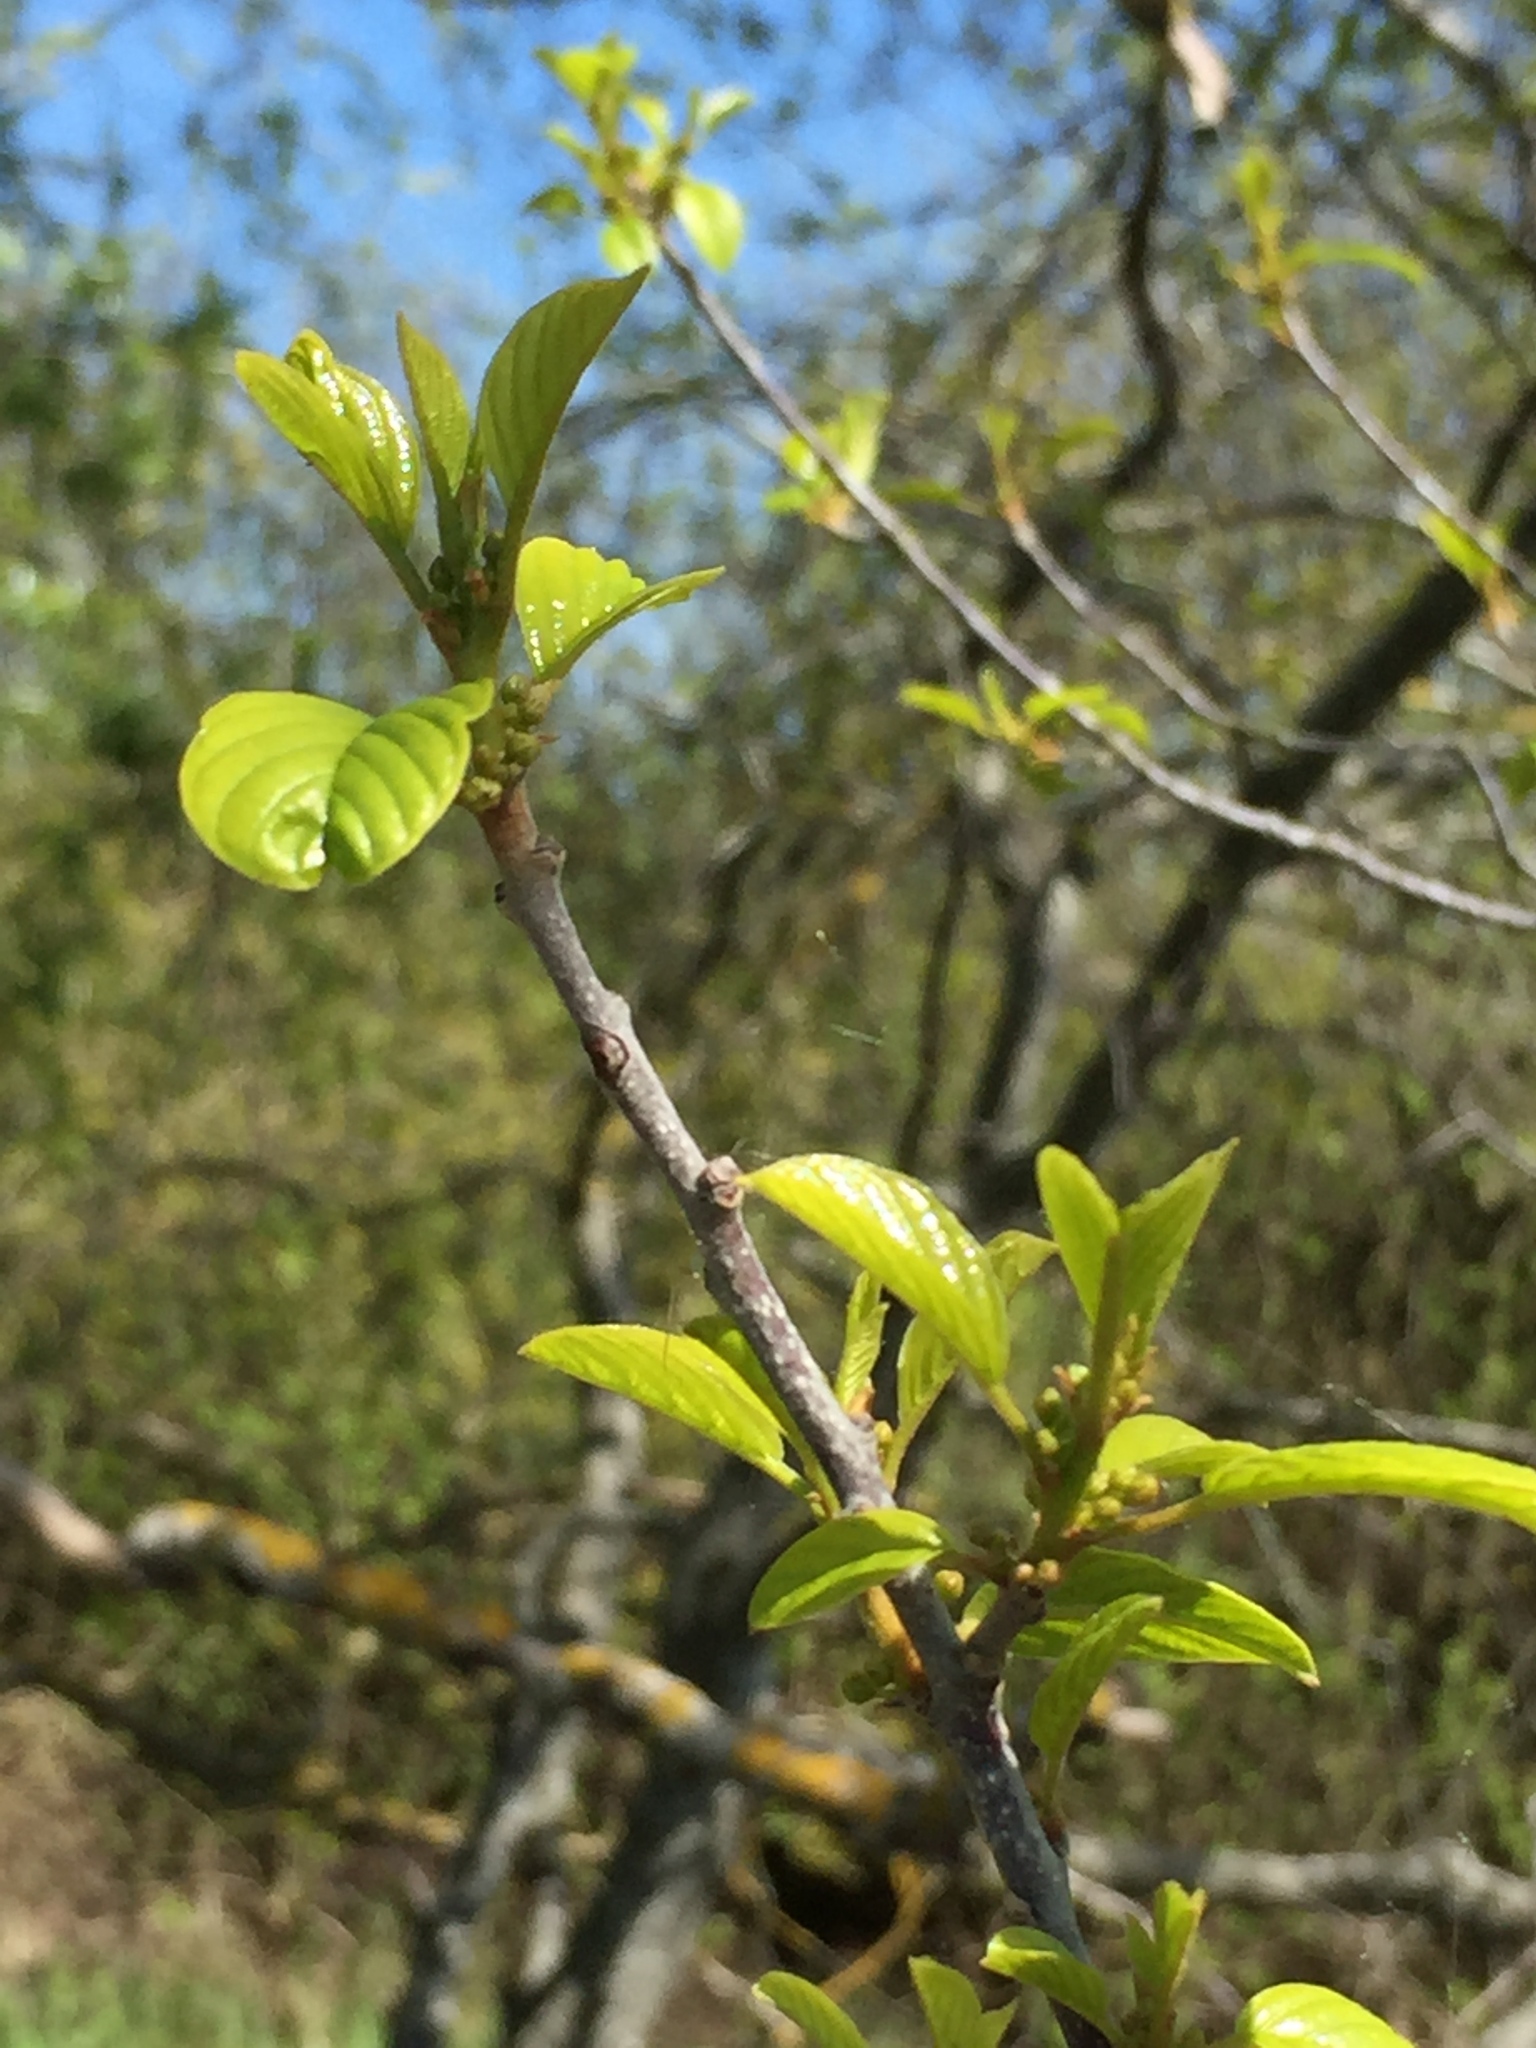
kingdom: Plantae
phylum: Tracheophyta
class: Magnoliopsida
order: Rosales
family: Rhamnaceae
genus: Frangula
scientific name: Frangula alnus
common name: Alder buckthorn
